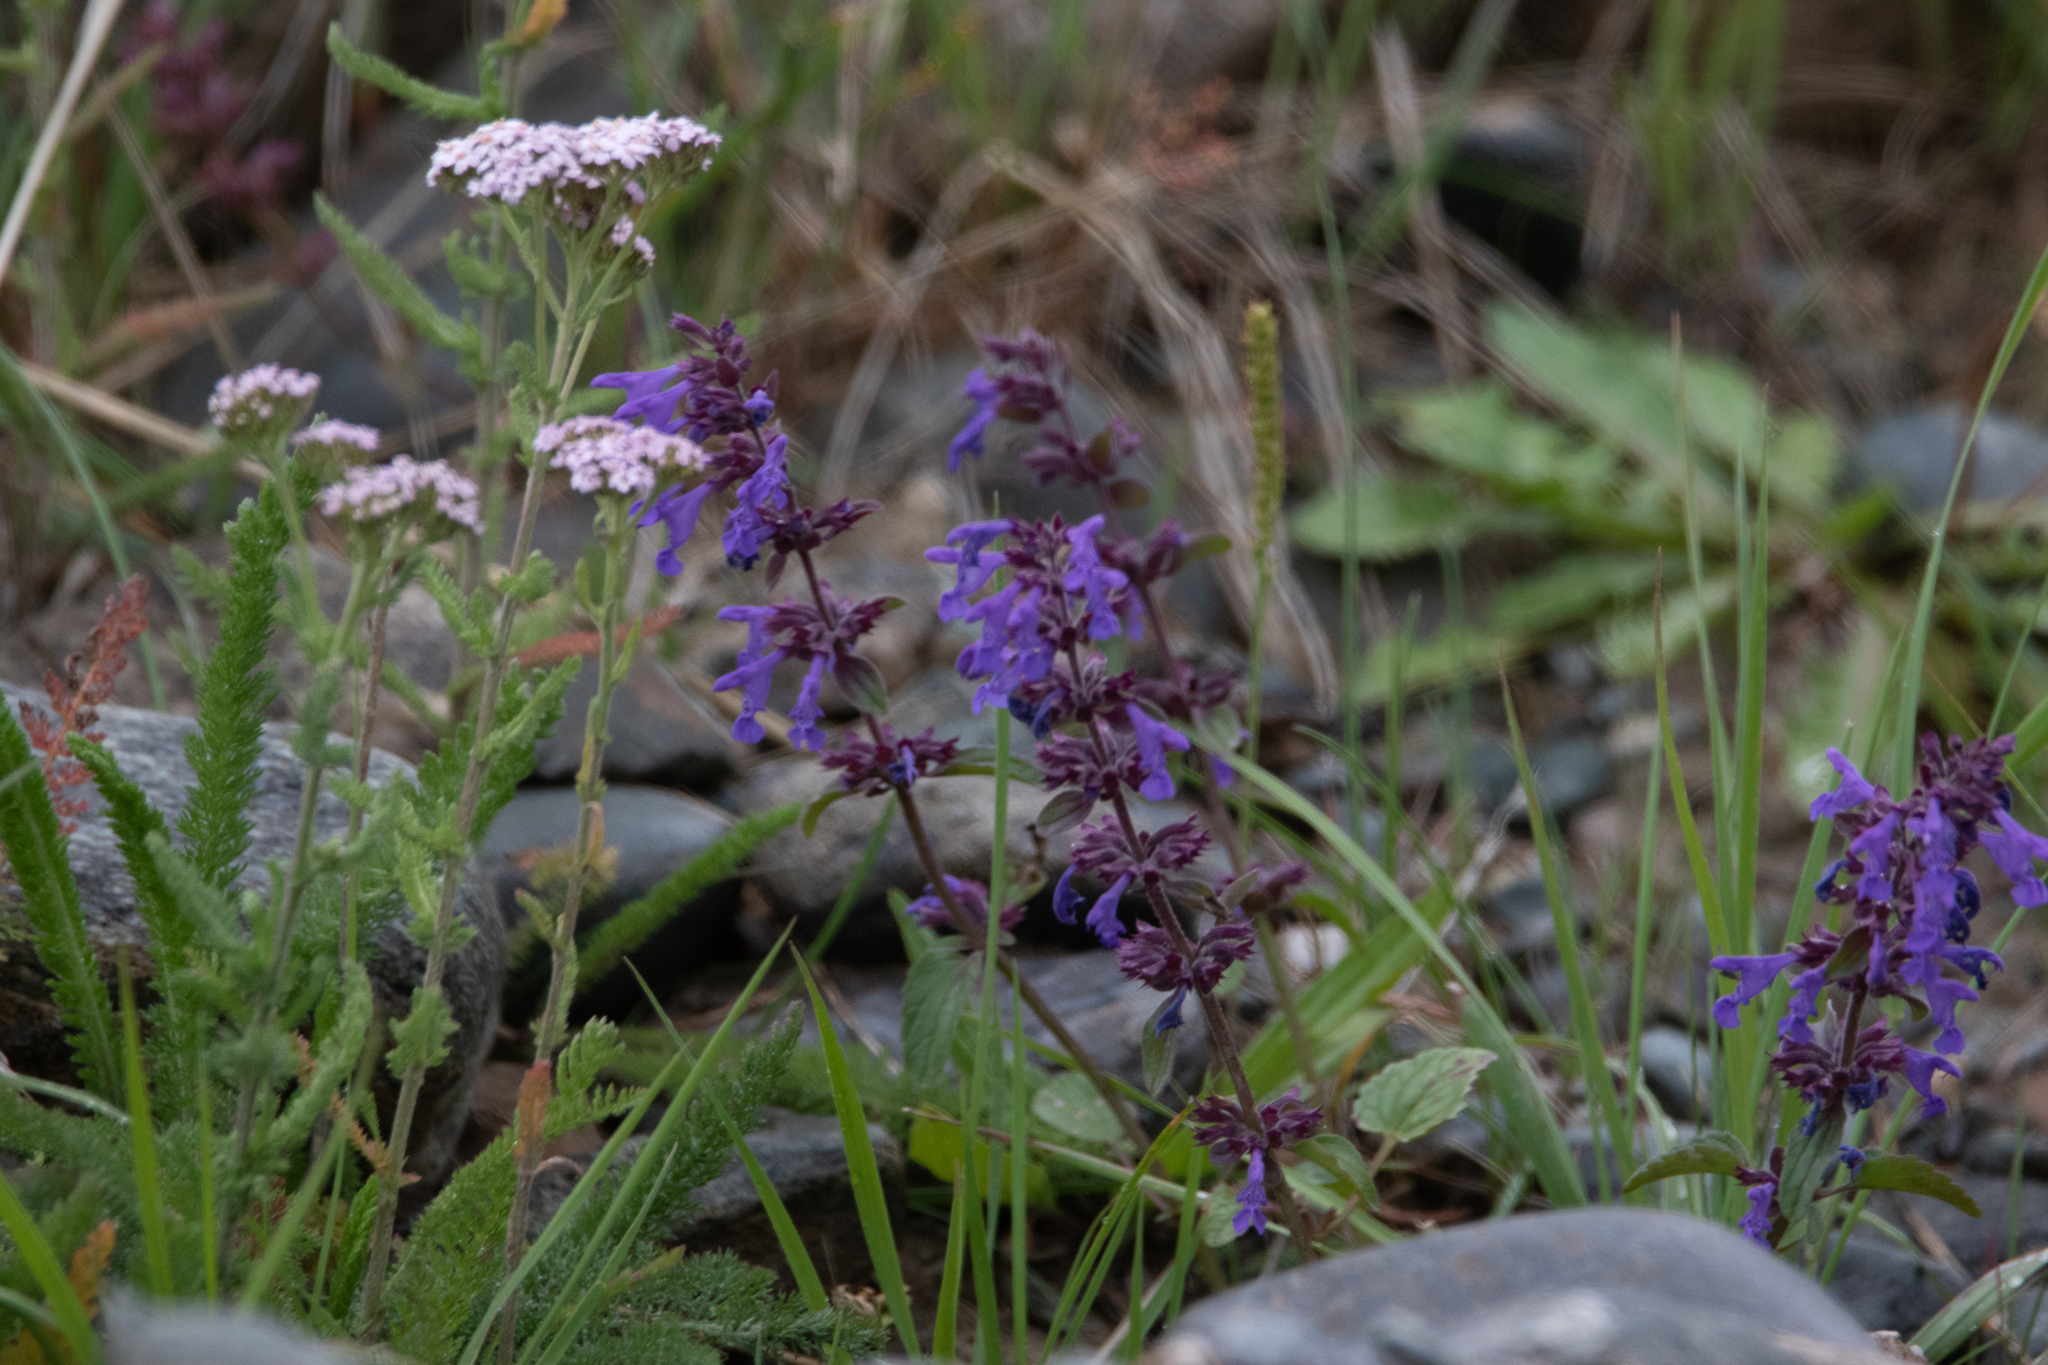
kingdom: Plantae
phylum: Tracheophyta
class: Magnoliopsida
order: Lamiales
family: Lamiaceae
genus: Dracocephalum
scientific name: Dracocephalum nutans
